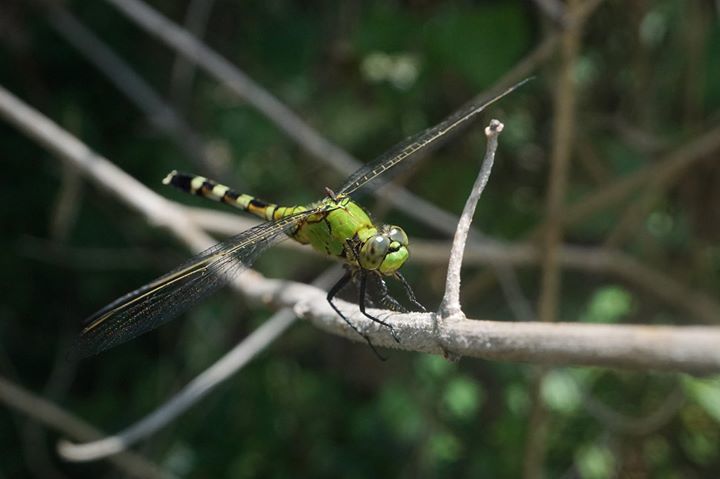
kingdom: Animalia
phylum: Arthropoda
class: Insecta
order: Odonata
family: Libellulidae
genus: Erythemis
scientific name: Erythemis simplicicollis
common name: Eastern pondhawk
